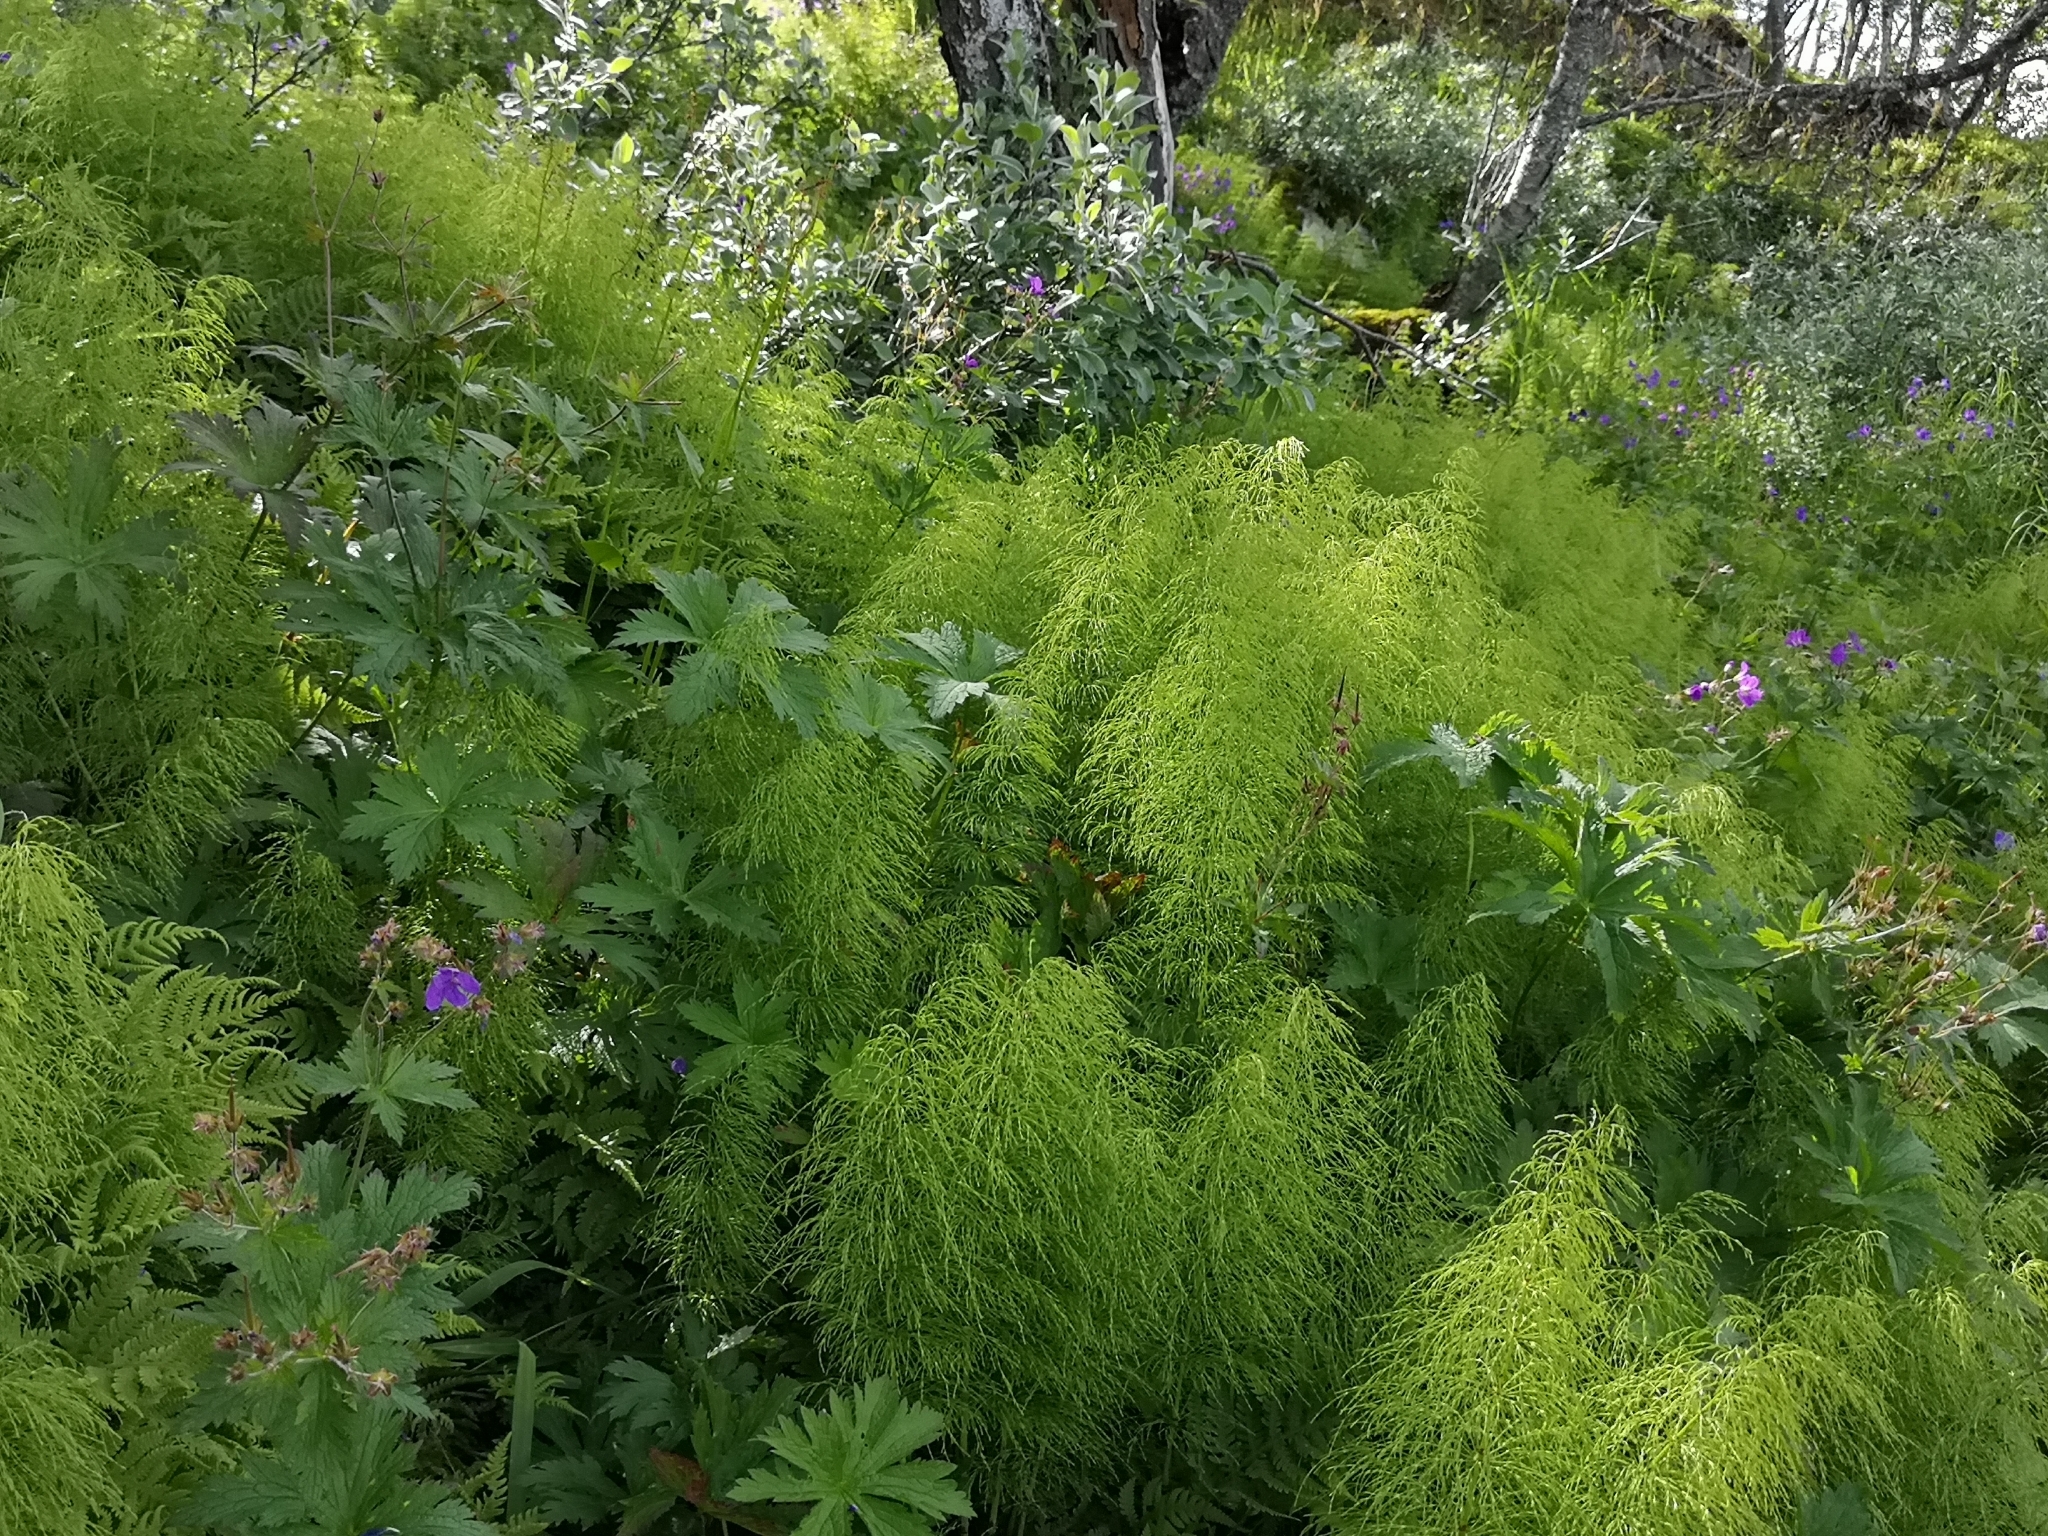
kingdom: Plantae
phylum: Tracheophyta
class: Polypodiopsida
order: Equisetales
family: Equisetaceae
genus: Equisetum
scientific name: Equisetum sylvaticum
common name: Wood horsetail
